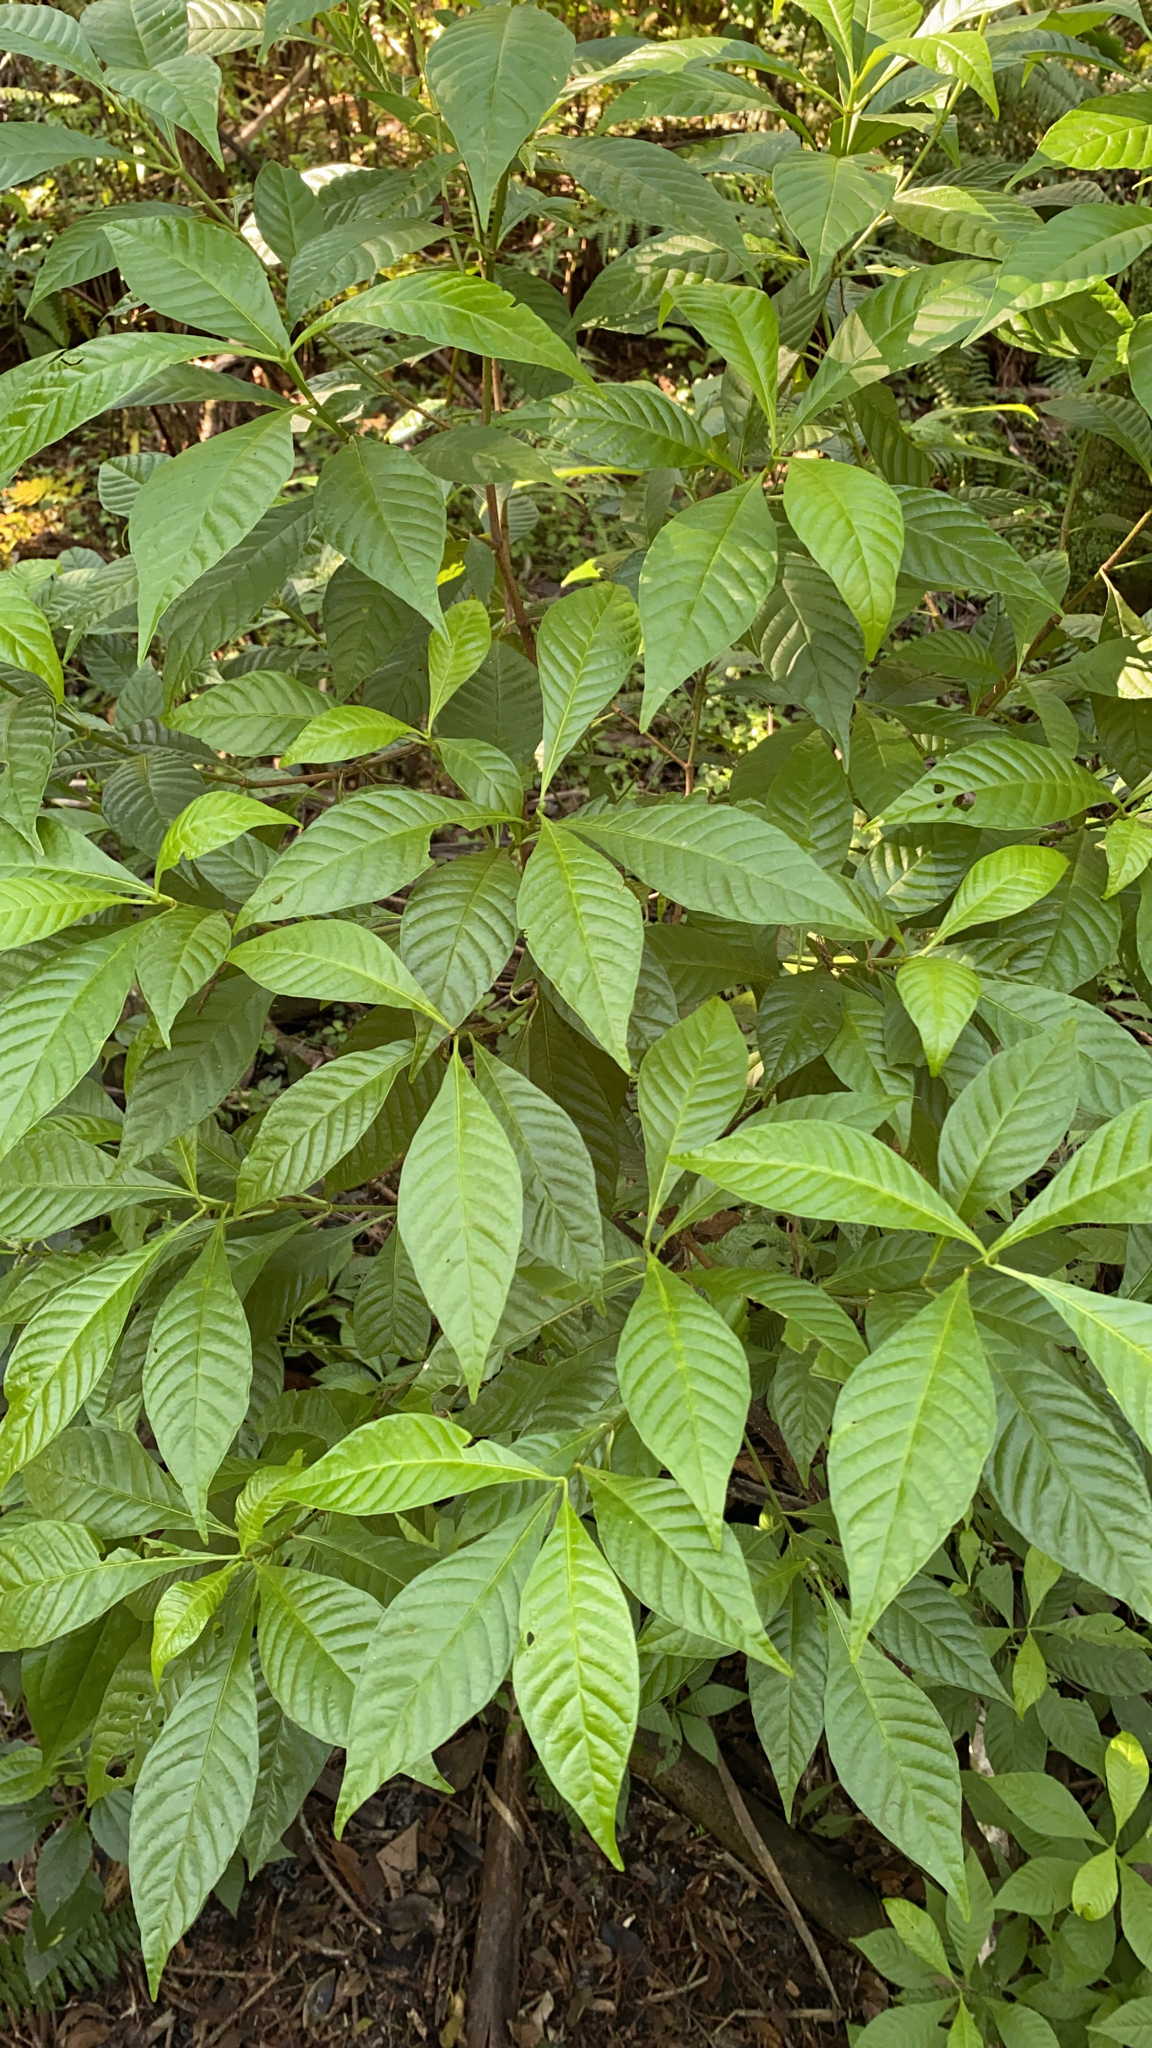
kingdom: Plantae
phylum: Tracheophyta
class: Magnoliopsida
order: Gentianales
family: Rubiaceae
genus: Psychotria
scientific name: Psychotria nervosa
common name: Bastard cankerberry
